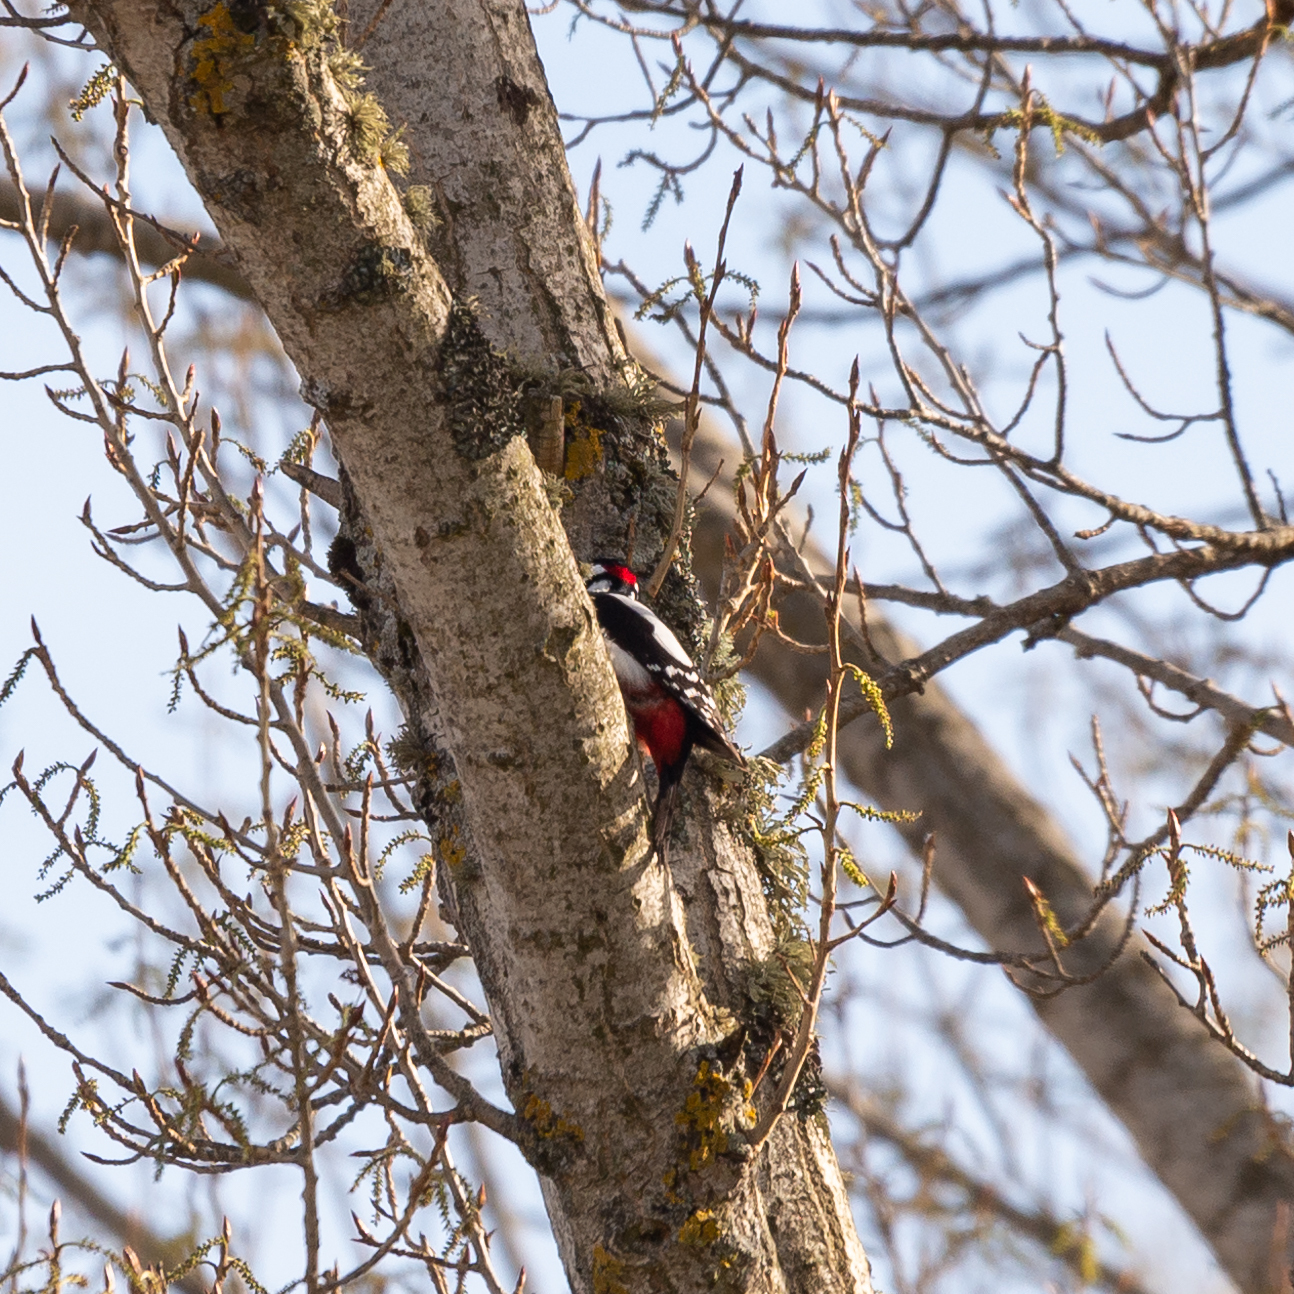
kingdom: Animalia
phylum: Chordata
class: Aves
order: Piciformes
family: Picidae
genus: Dendrocopos
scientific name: Dendrocopos major
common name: Great spotted woodpecker
